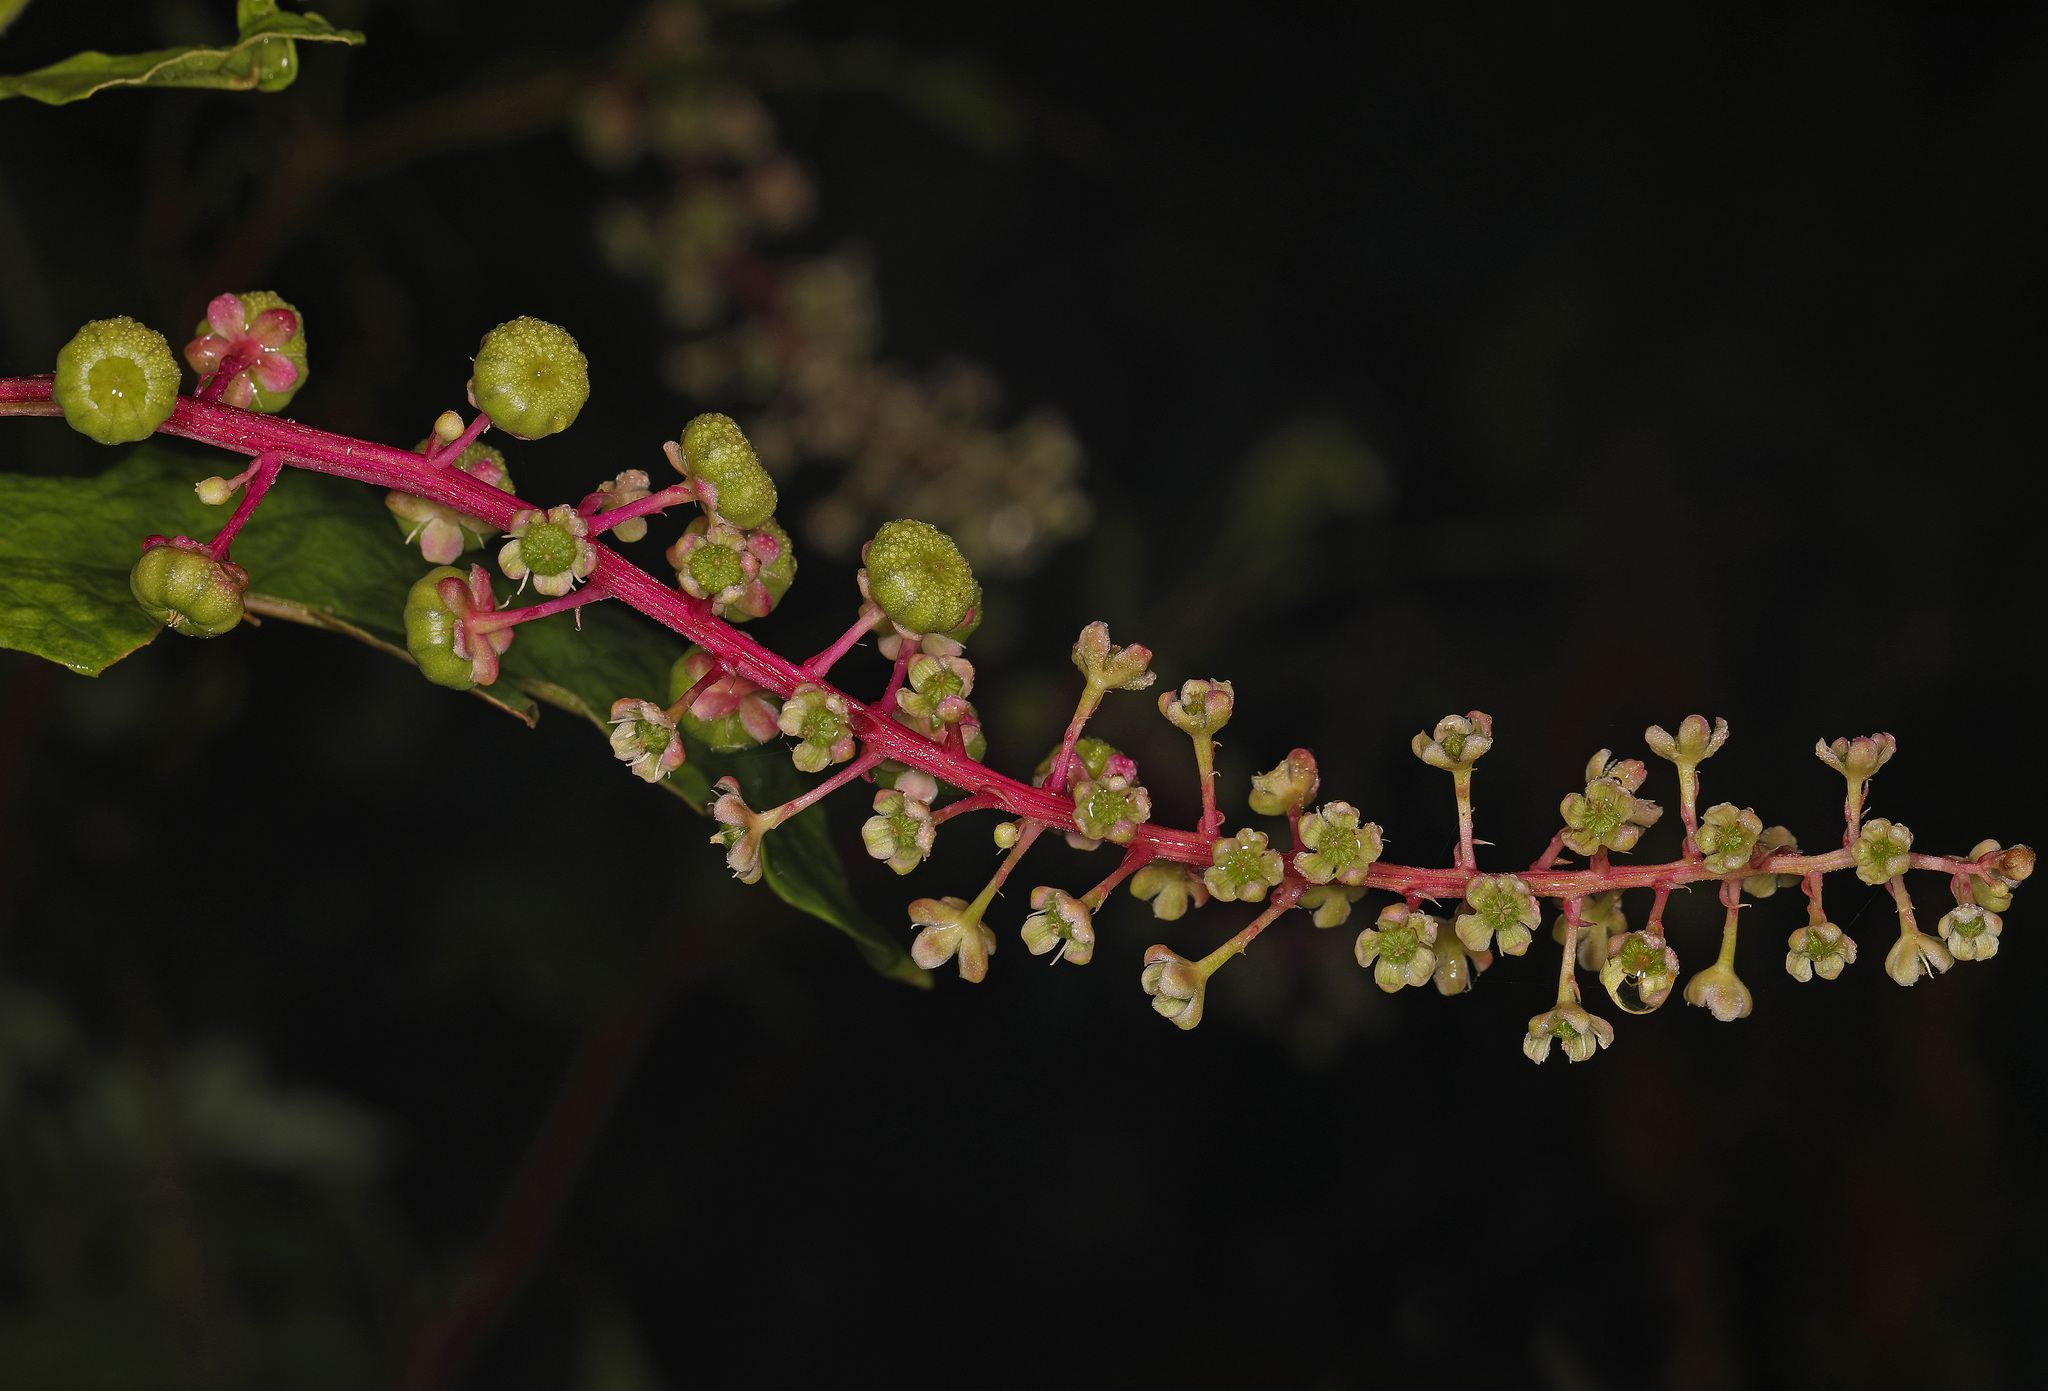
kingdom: Plantae
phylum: Tracheophyta
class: Magnoliopsida
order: Caryophyllales
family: Phytolaccaceae
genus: Phytolacca
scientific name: Phytolacca americana
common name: American pokeweed
